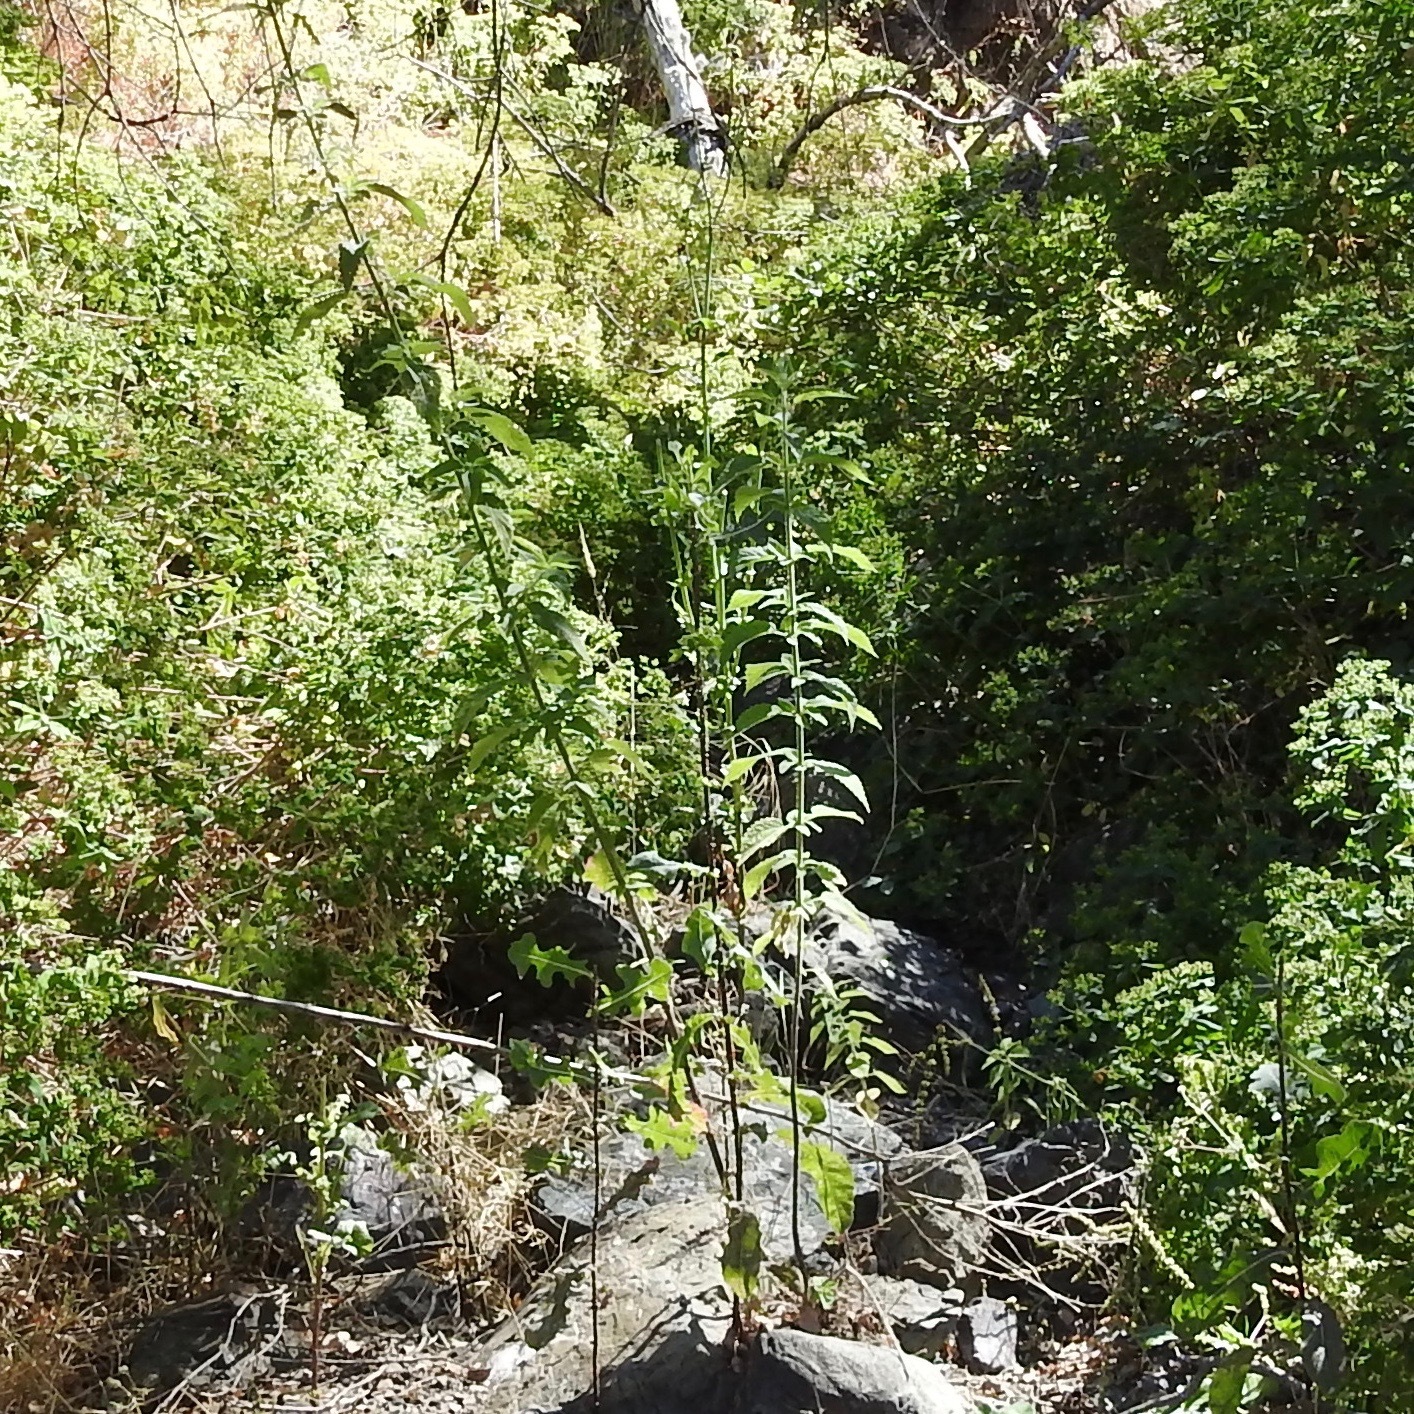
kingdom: Plantae
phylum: Tracheophyta
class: Magnoliopsida
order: Rosales
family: Urticaceae
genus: Urtica
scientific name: Urtica dioica
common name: Common nettle
